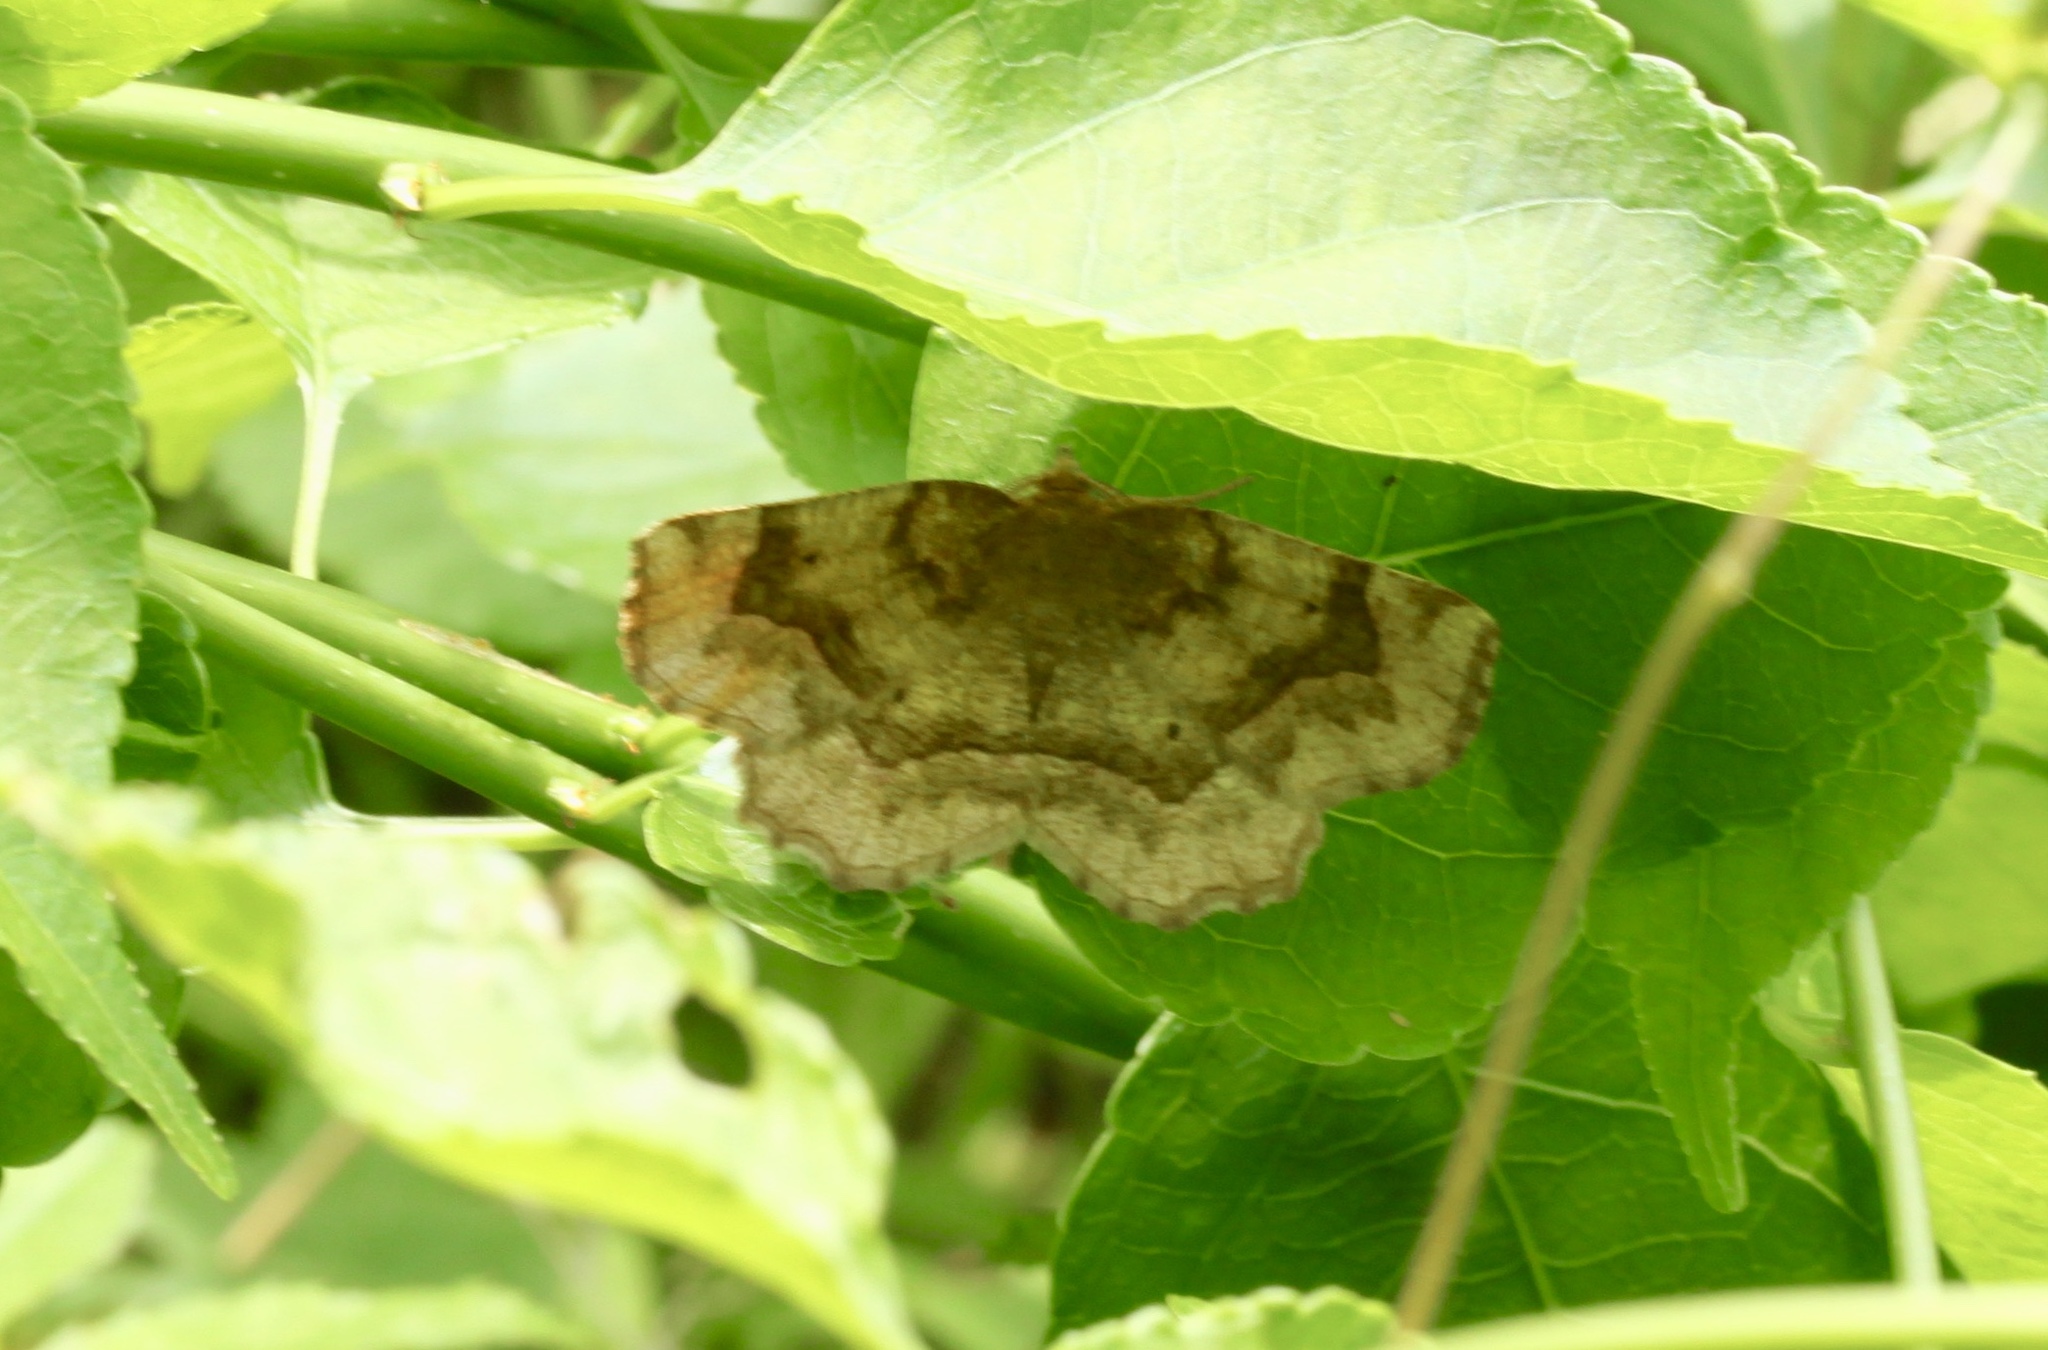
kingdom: Animalia
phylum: Arthropoda
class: Insecta
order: Lepidoptera
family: Geometridae
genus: Metarranthis
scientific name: Metarranthis refractaria
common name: Refracted metarranthis moth
